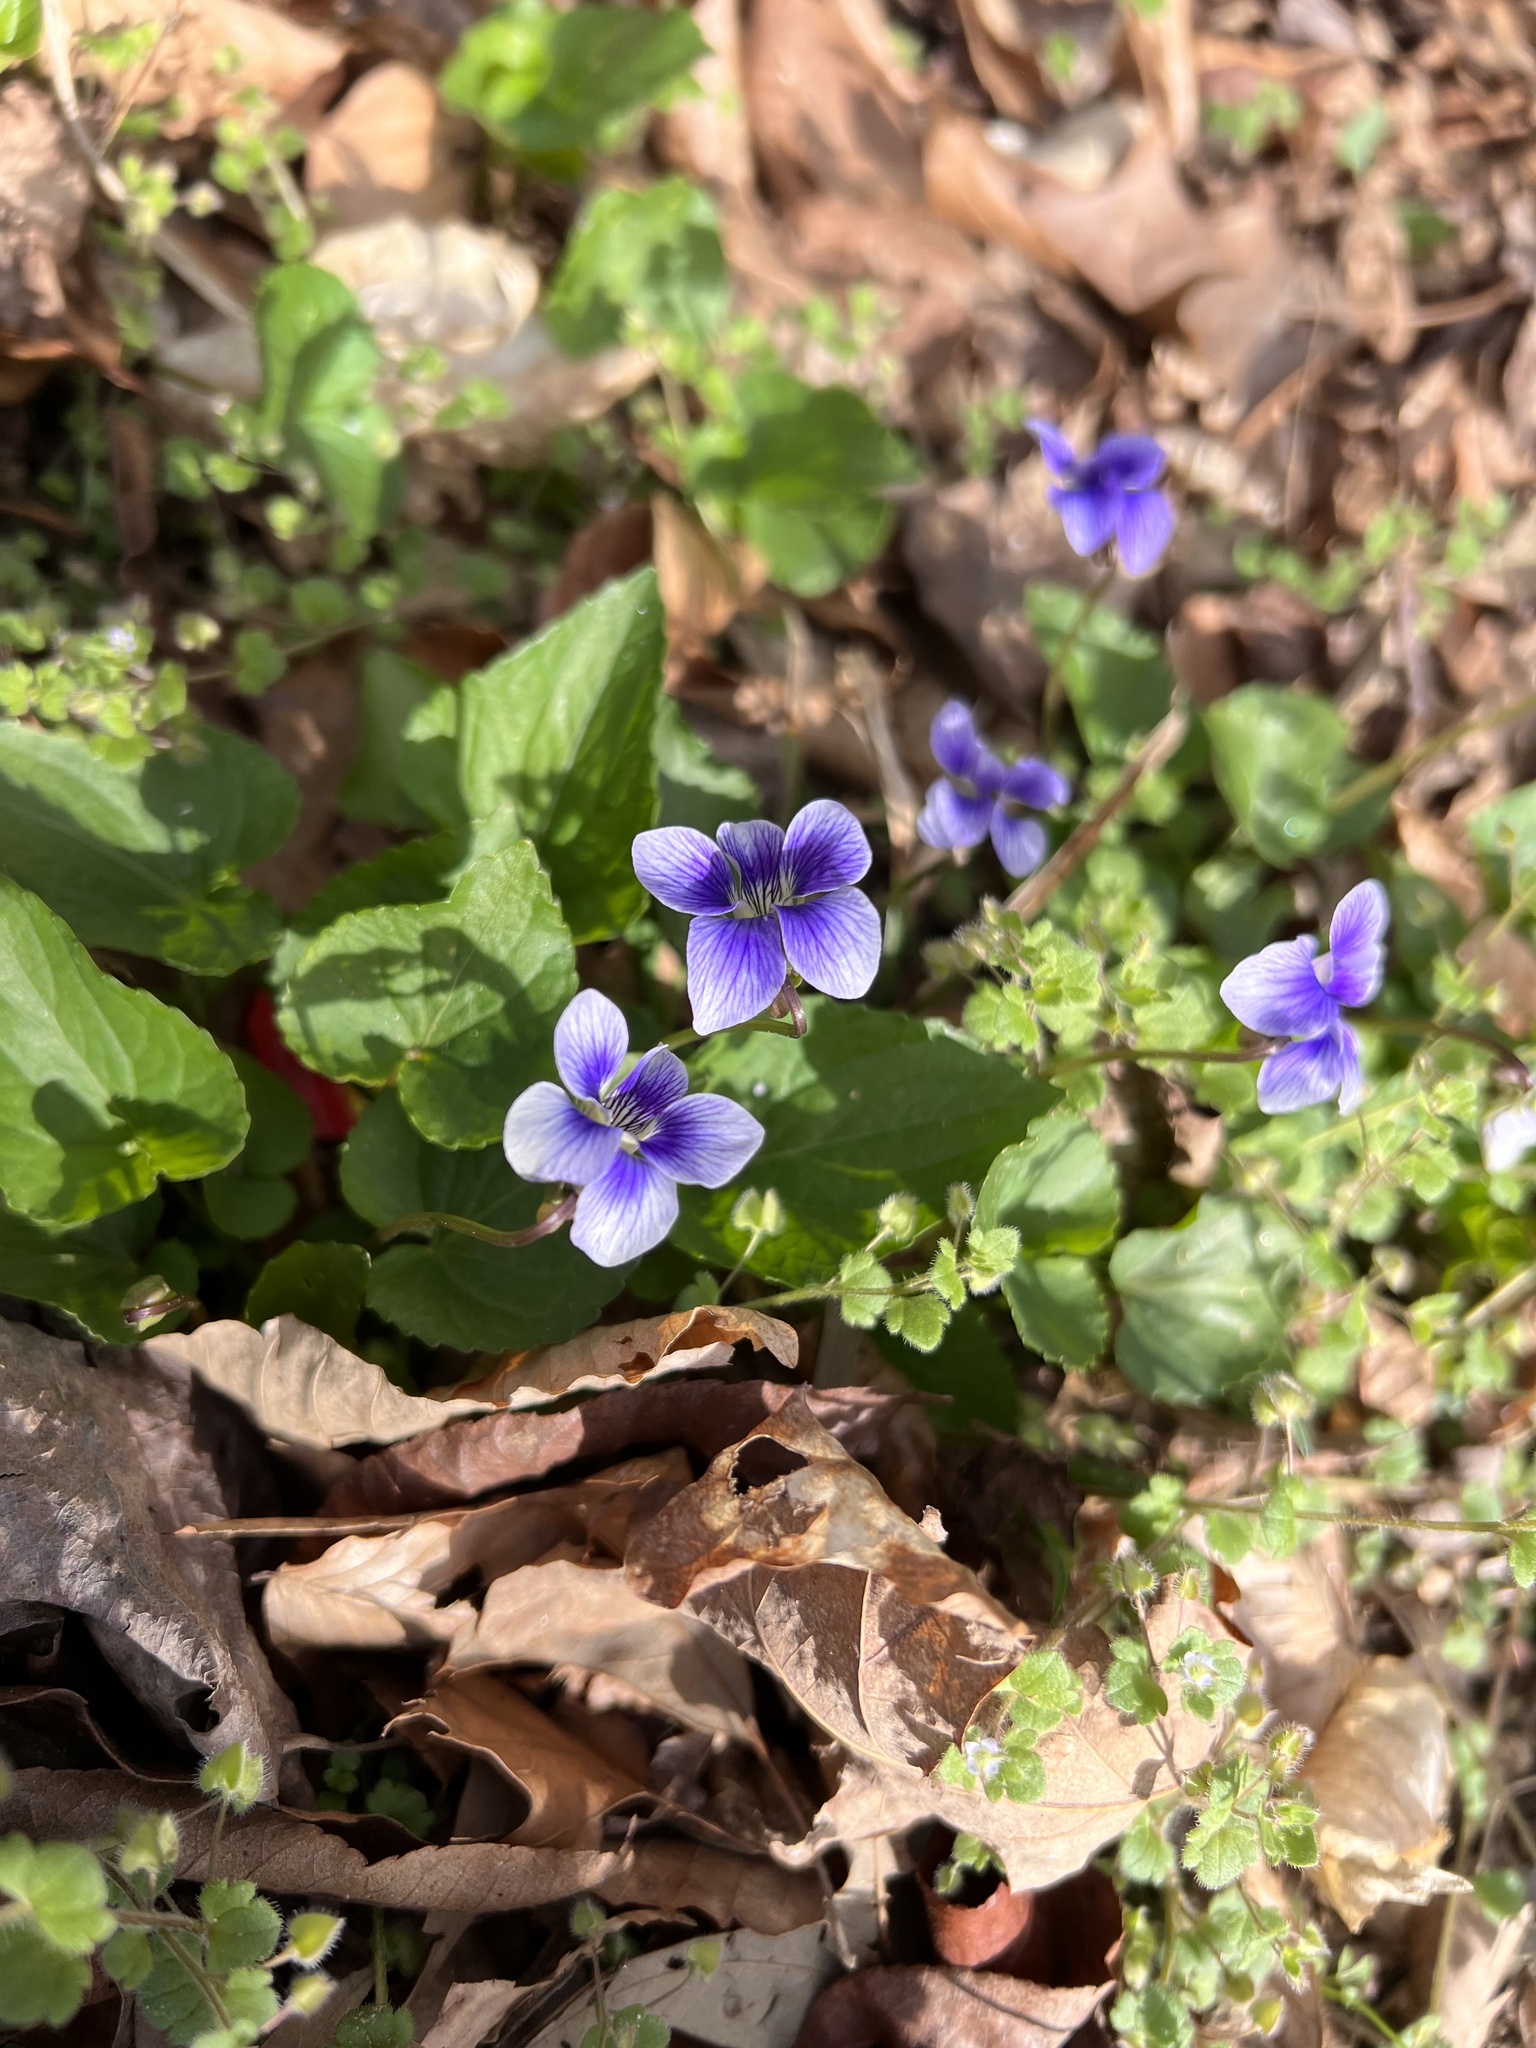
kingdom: Plantae
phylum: Tracheophyta
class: Magnoliopsida
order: Malpighiales
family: Violaceae
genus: Viola
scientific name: Viola sororia
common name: Dooryard violet
